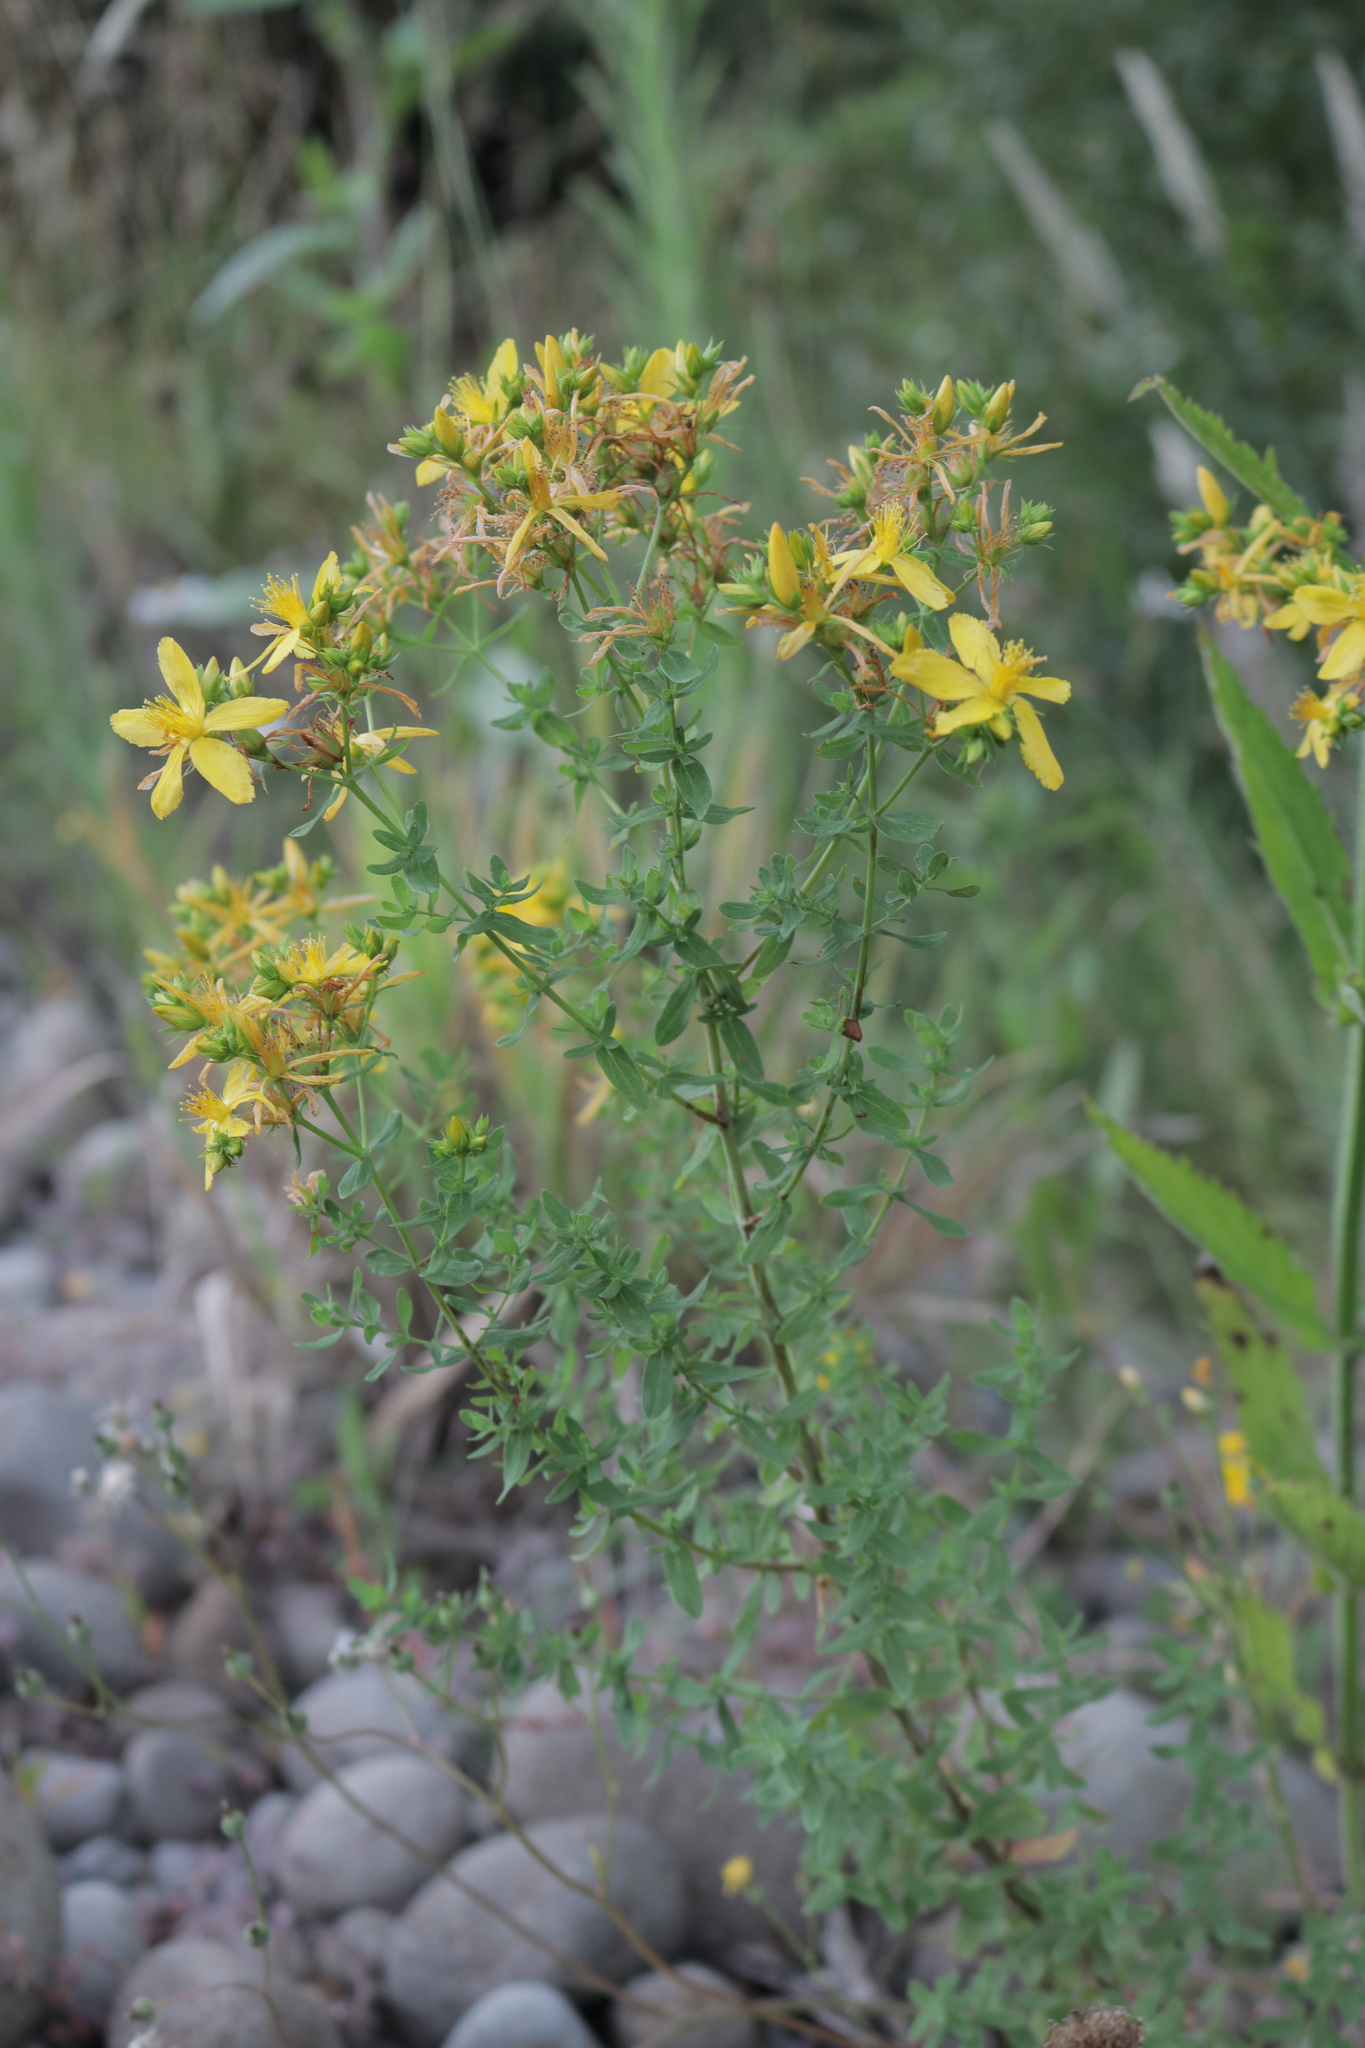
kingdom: Plantae
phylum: Tracheophyta
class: Magnoliopsida
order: Malpighiales
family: Hypericaceae
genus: Hypericum
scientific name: Hypericum perforatum
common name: Common st. johnswort
